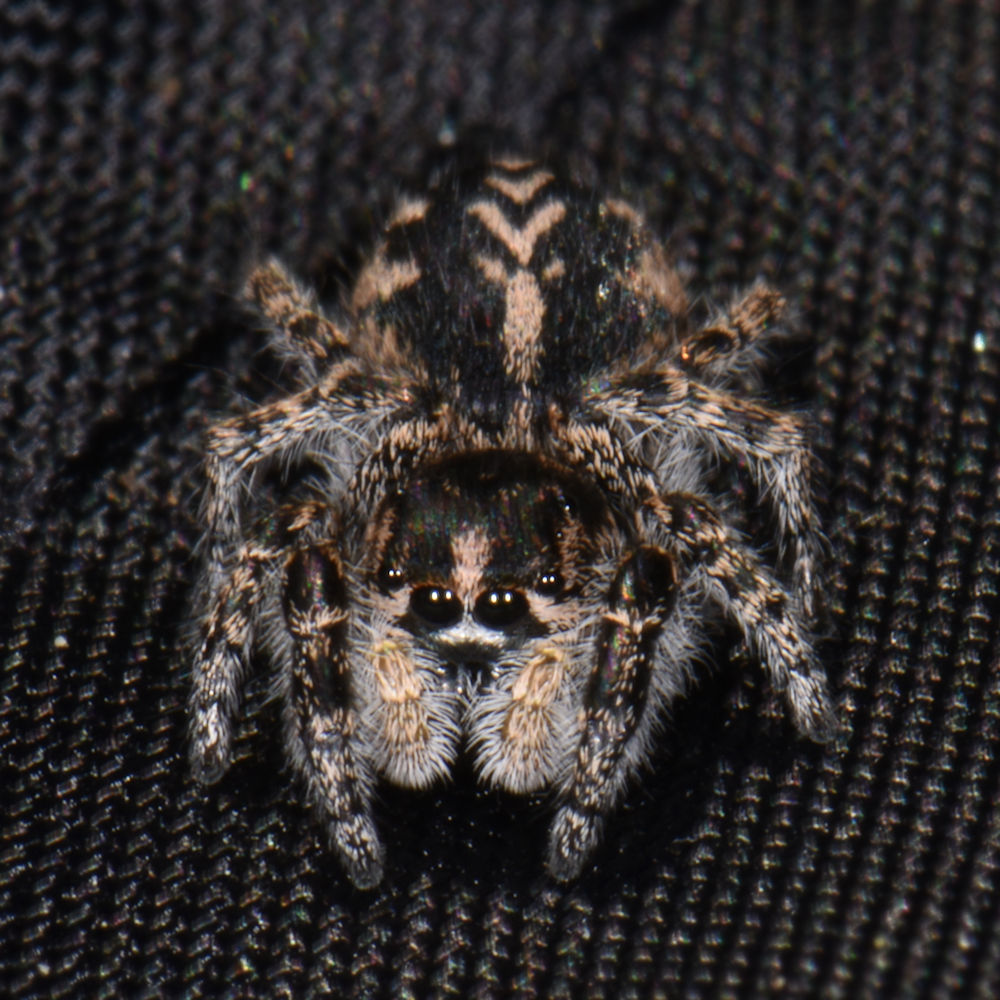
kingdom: Animalia
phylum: Arthropoda
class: Arachnida
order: Araneae
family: Salticidae
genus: Pellenes
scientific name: Pellenes peninsularis
